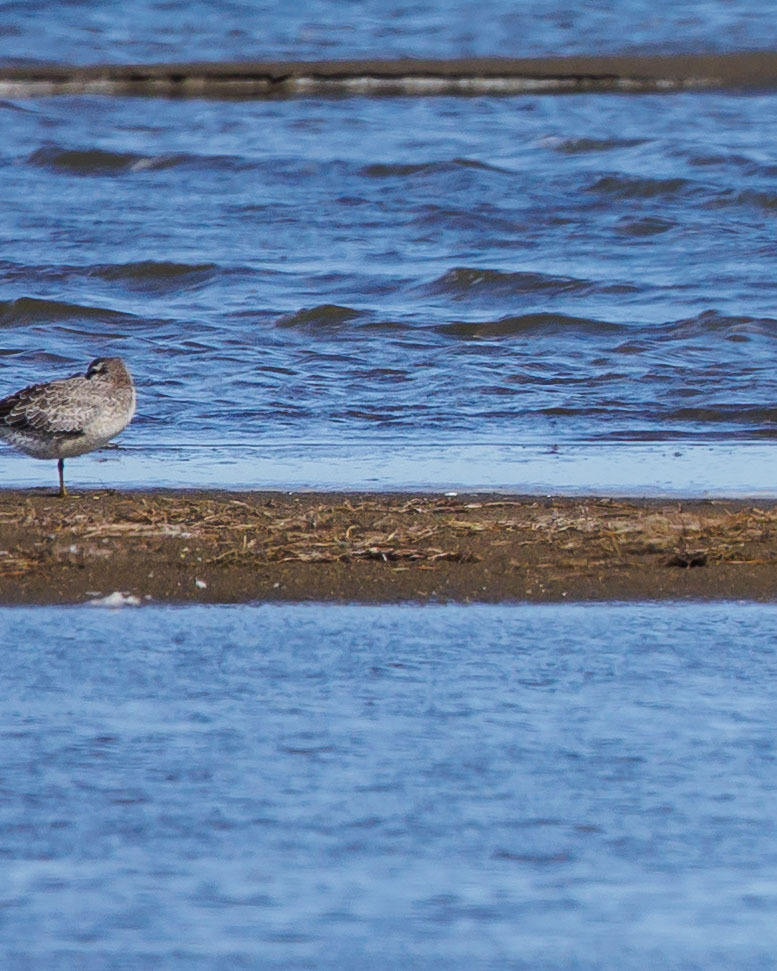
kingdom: Animalia
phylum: Chordata
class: Aves
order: Charadriiformes
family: Scolopacidae
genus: Calidris
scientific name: Calidris canutus
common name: Red knot
